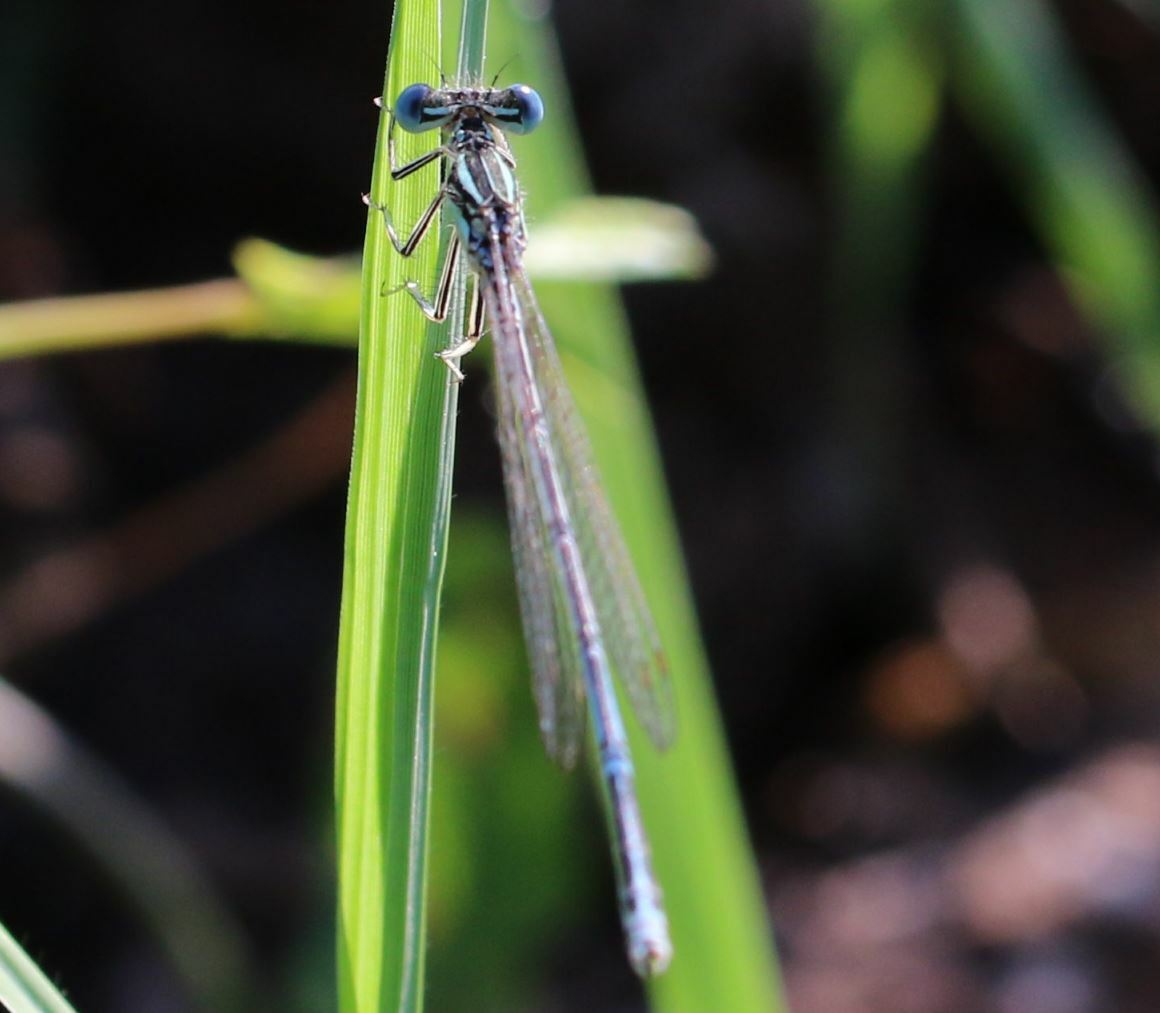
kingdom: Animalia
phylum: Arthropoda
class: Insecta
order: Odonata
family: Platycnemididae
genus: Platycnemis
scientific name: Platycnemis pennipes
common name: White-legged damselfly
